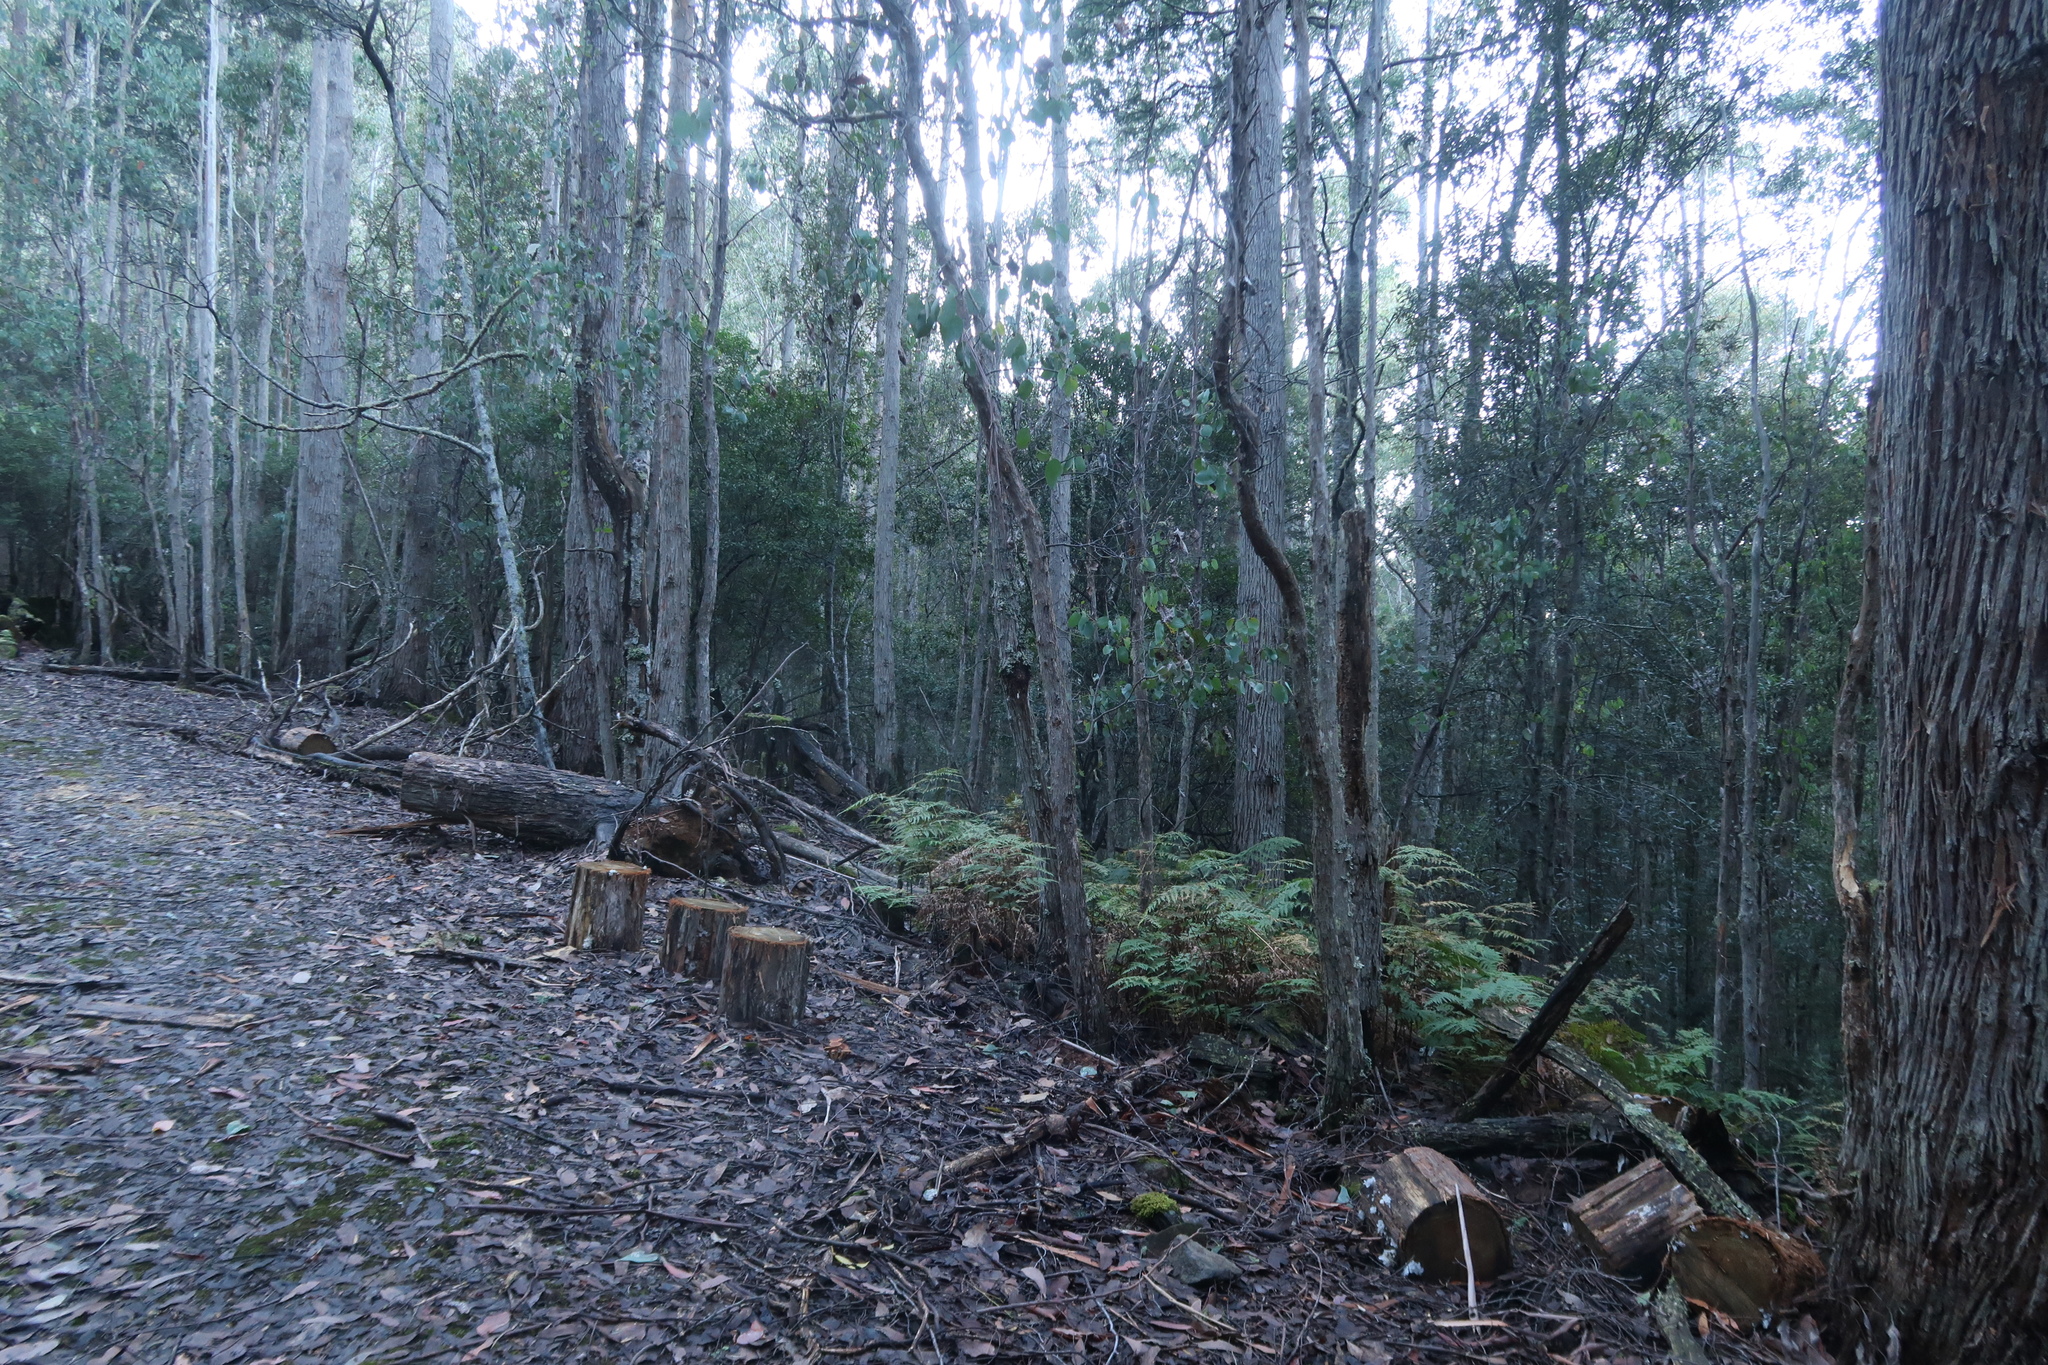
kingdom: Fungi
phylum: Basidiomycota
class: Tremellomycetes
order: Tremellales
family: Tremellaceae
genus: Tremella
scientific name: Tremella fuciformis
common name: Snow fungus
